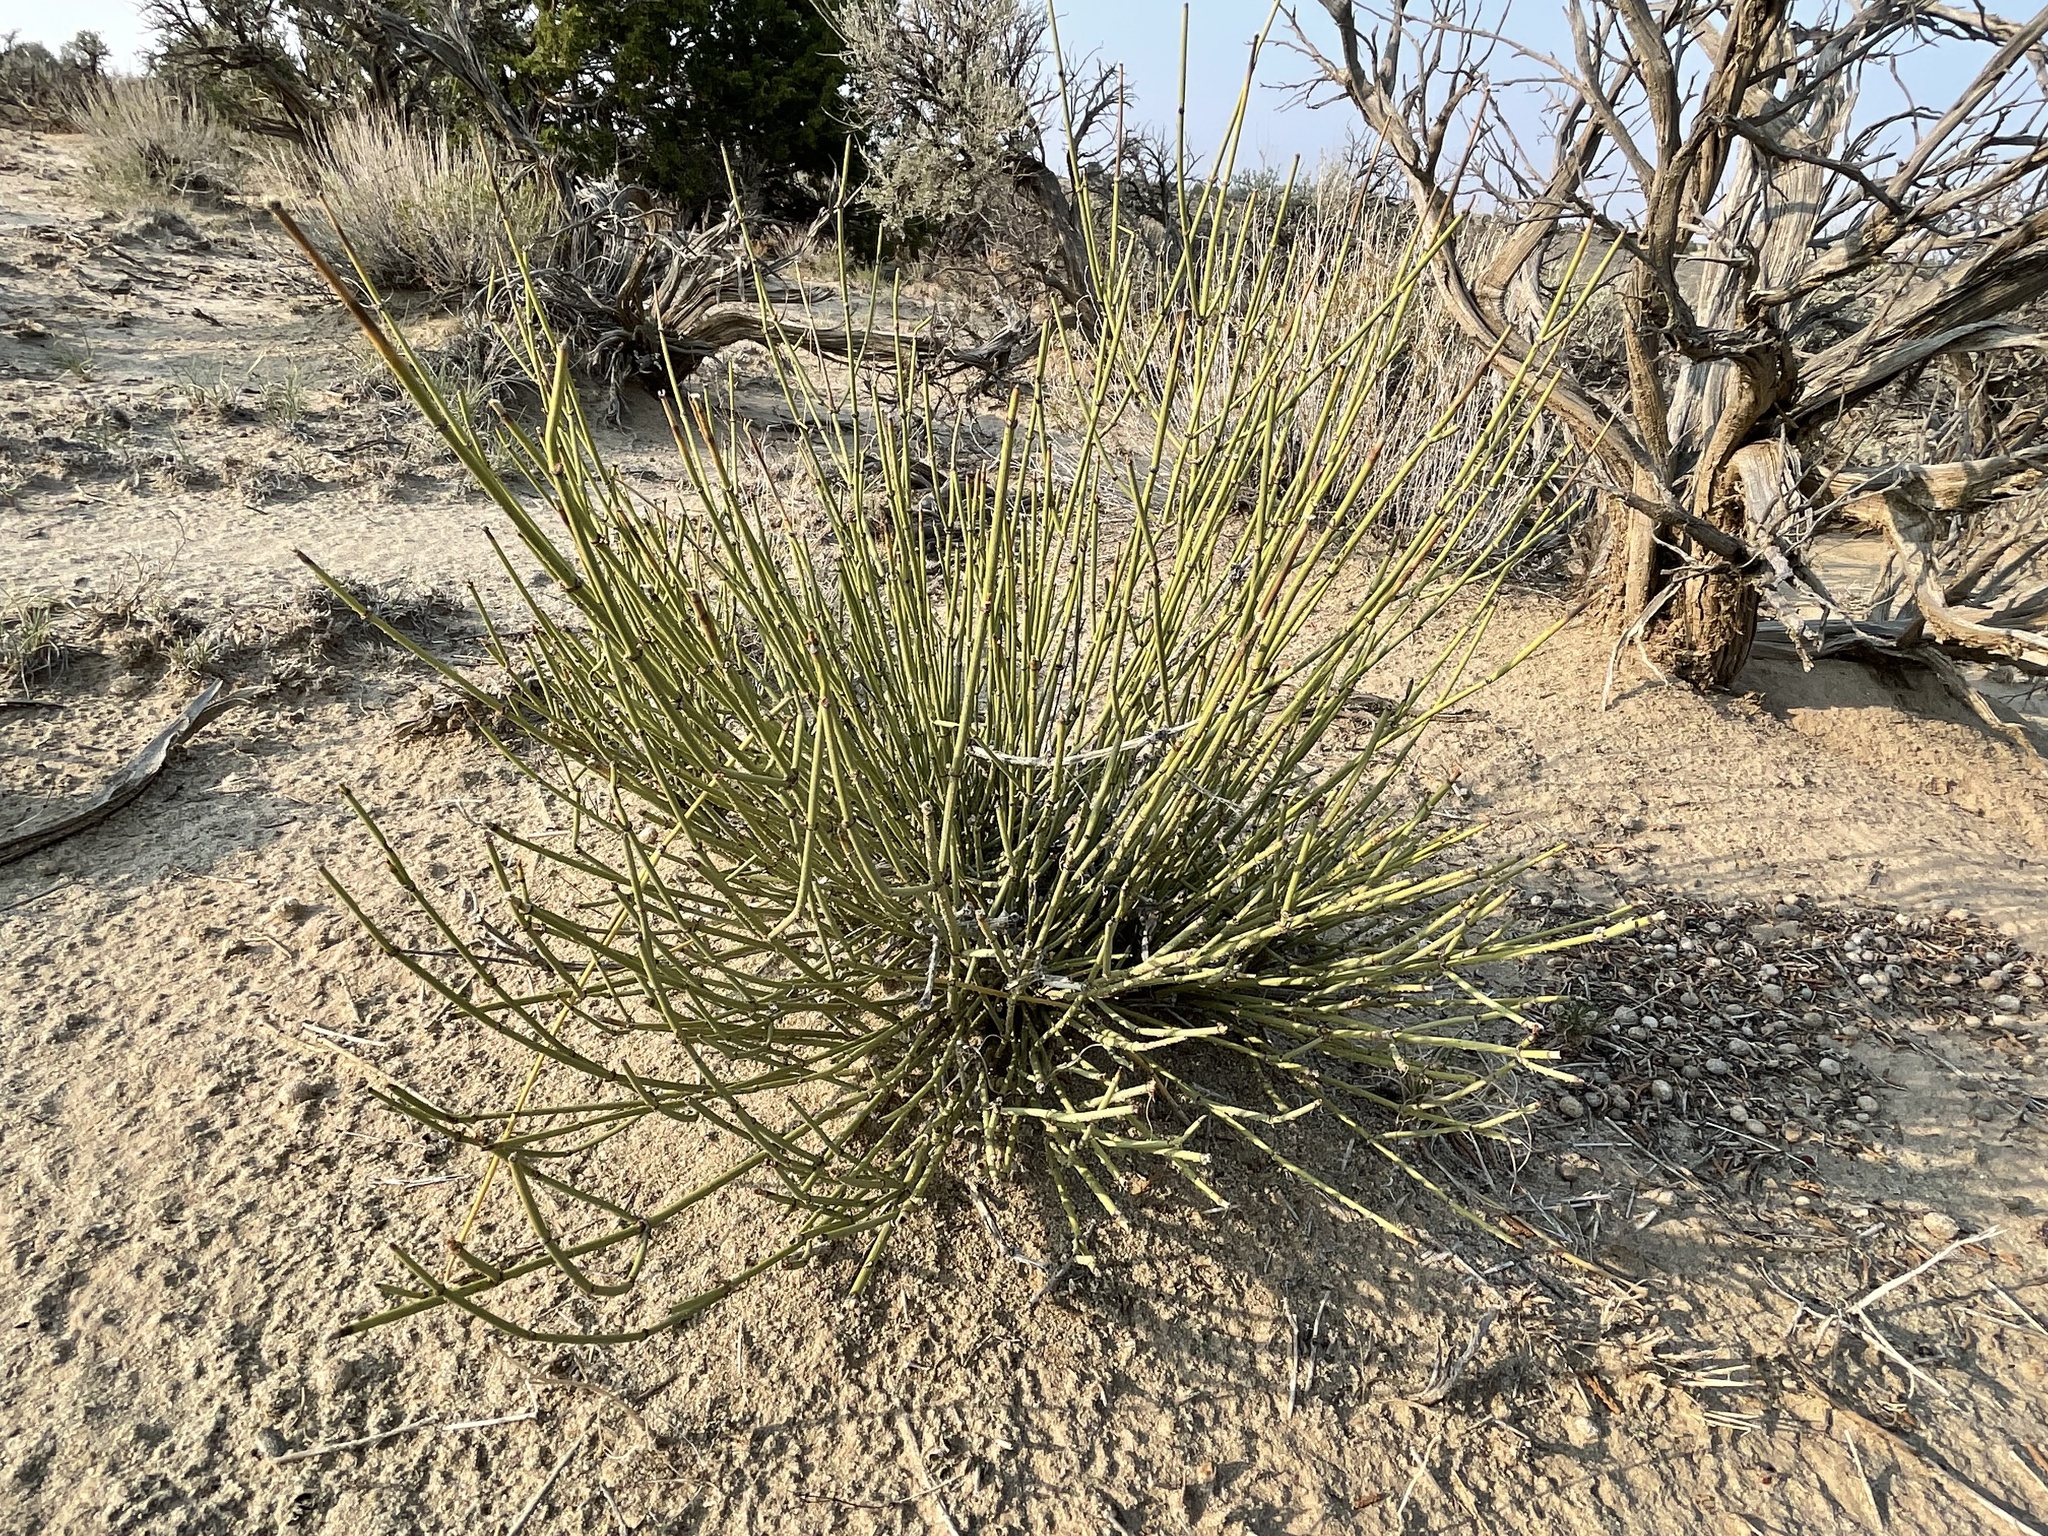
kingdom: Plantae
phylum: Tracheophyta
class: Gnetopsida
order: Ephedrales
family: Ephedraceae
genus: Ephedra
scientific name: Ephedra viridis
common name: Green ephedra
